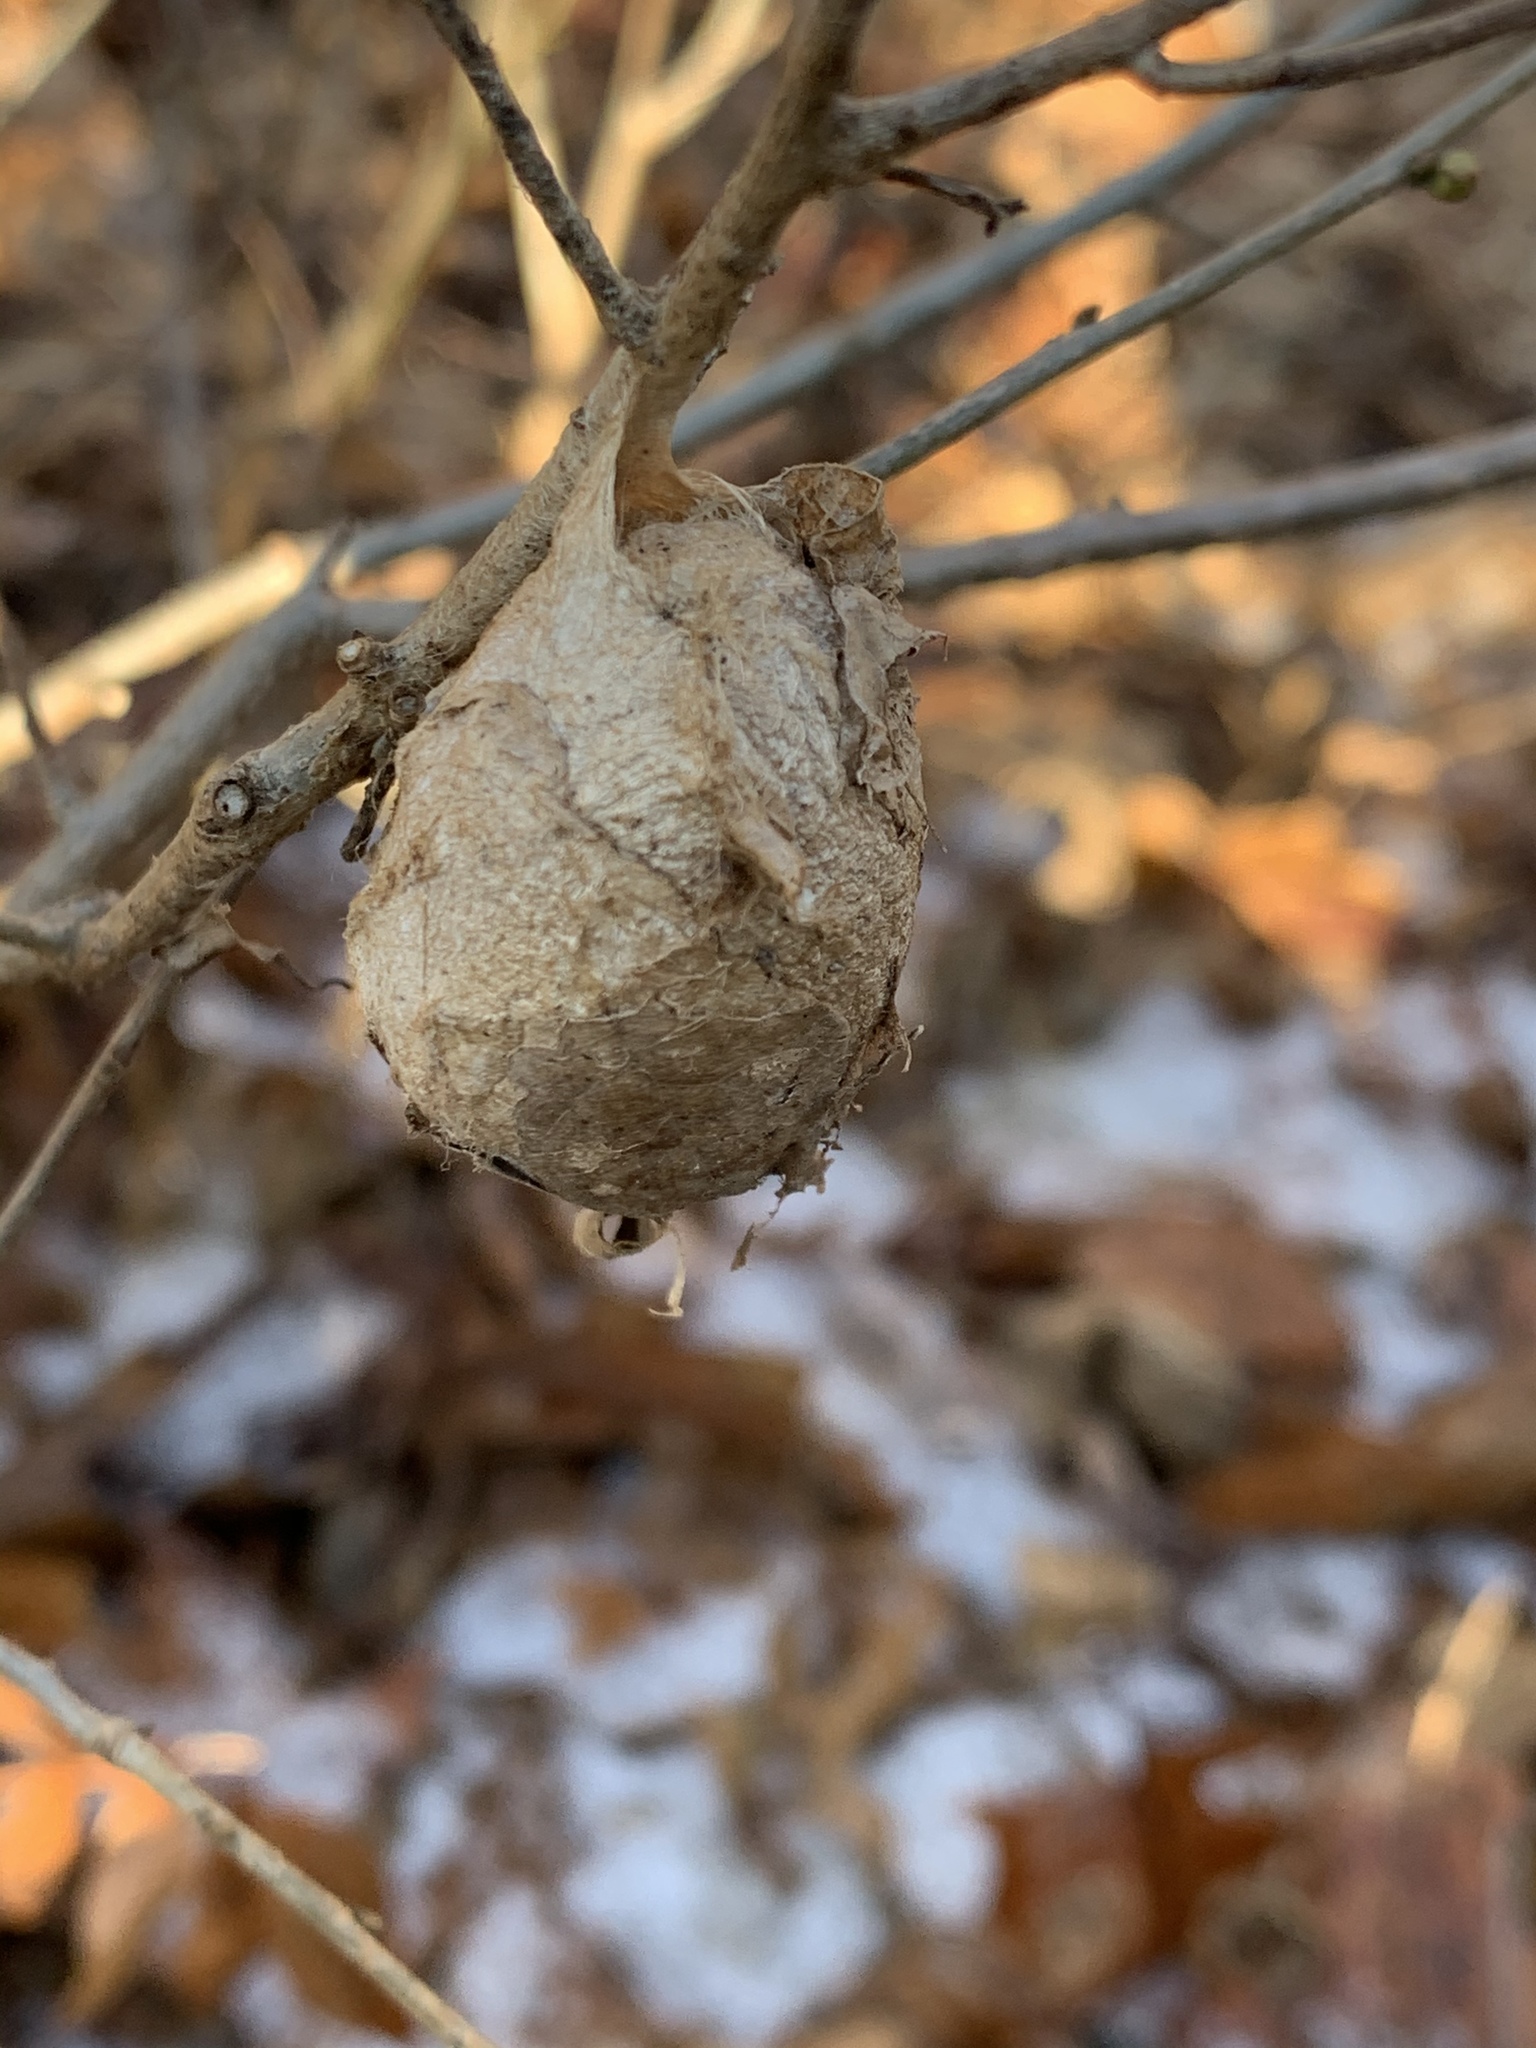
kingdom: Animalia
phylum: Arthropoda
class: Insecta
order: Lepidoptera
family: Saturniidae
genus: Antheraea
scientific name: Antheraea polyphemus
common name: Polyphemus moth
